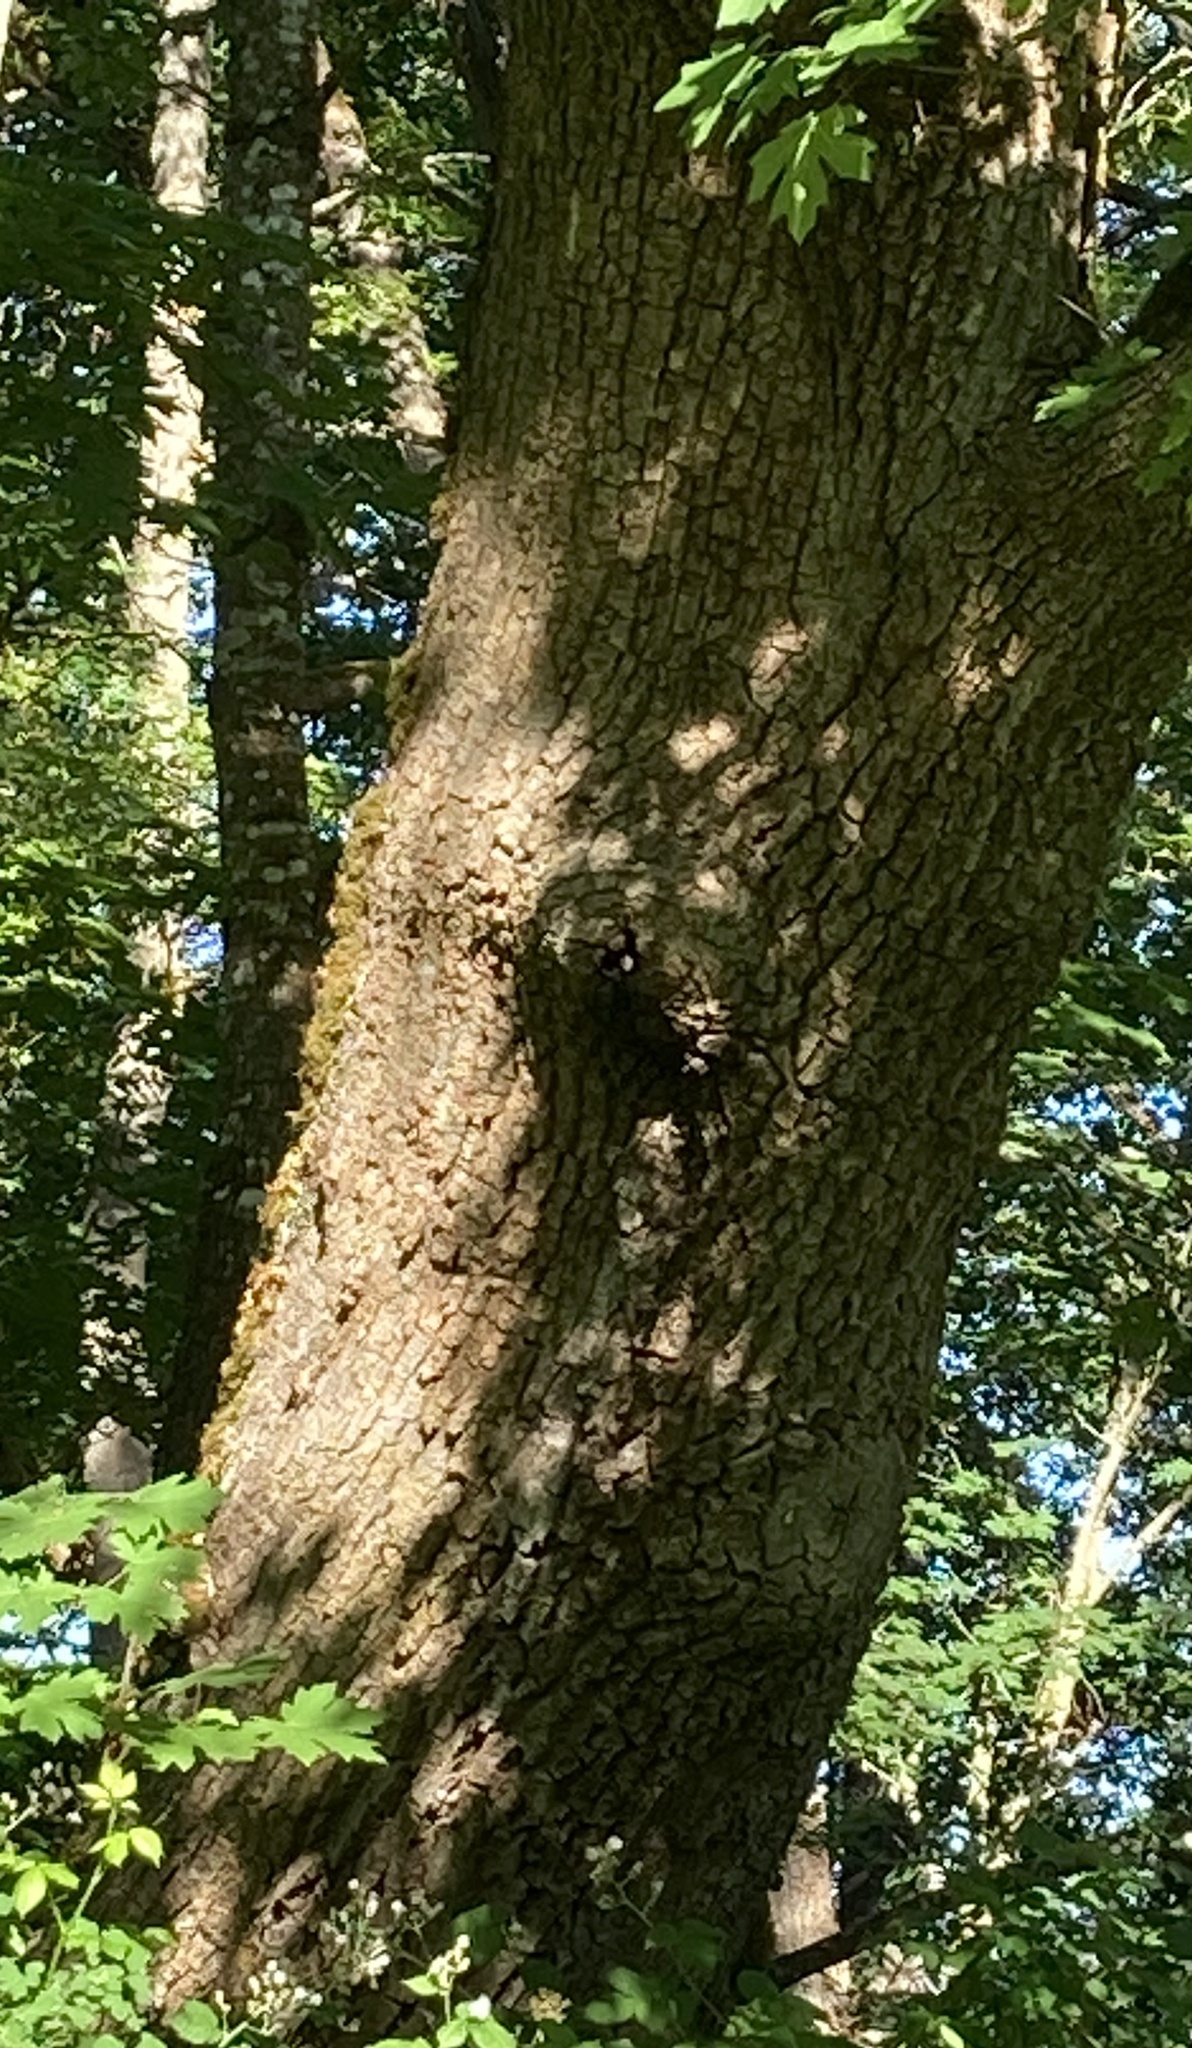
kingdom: Animalia
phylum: Chordata
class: Aves
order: Passeriformes
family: Hirundinidae
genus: Tachycineta
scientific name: Tachycineta bicolor
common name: Tree swallow
